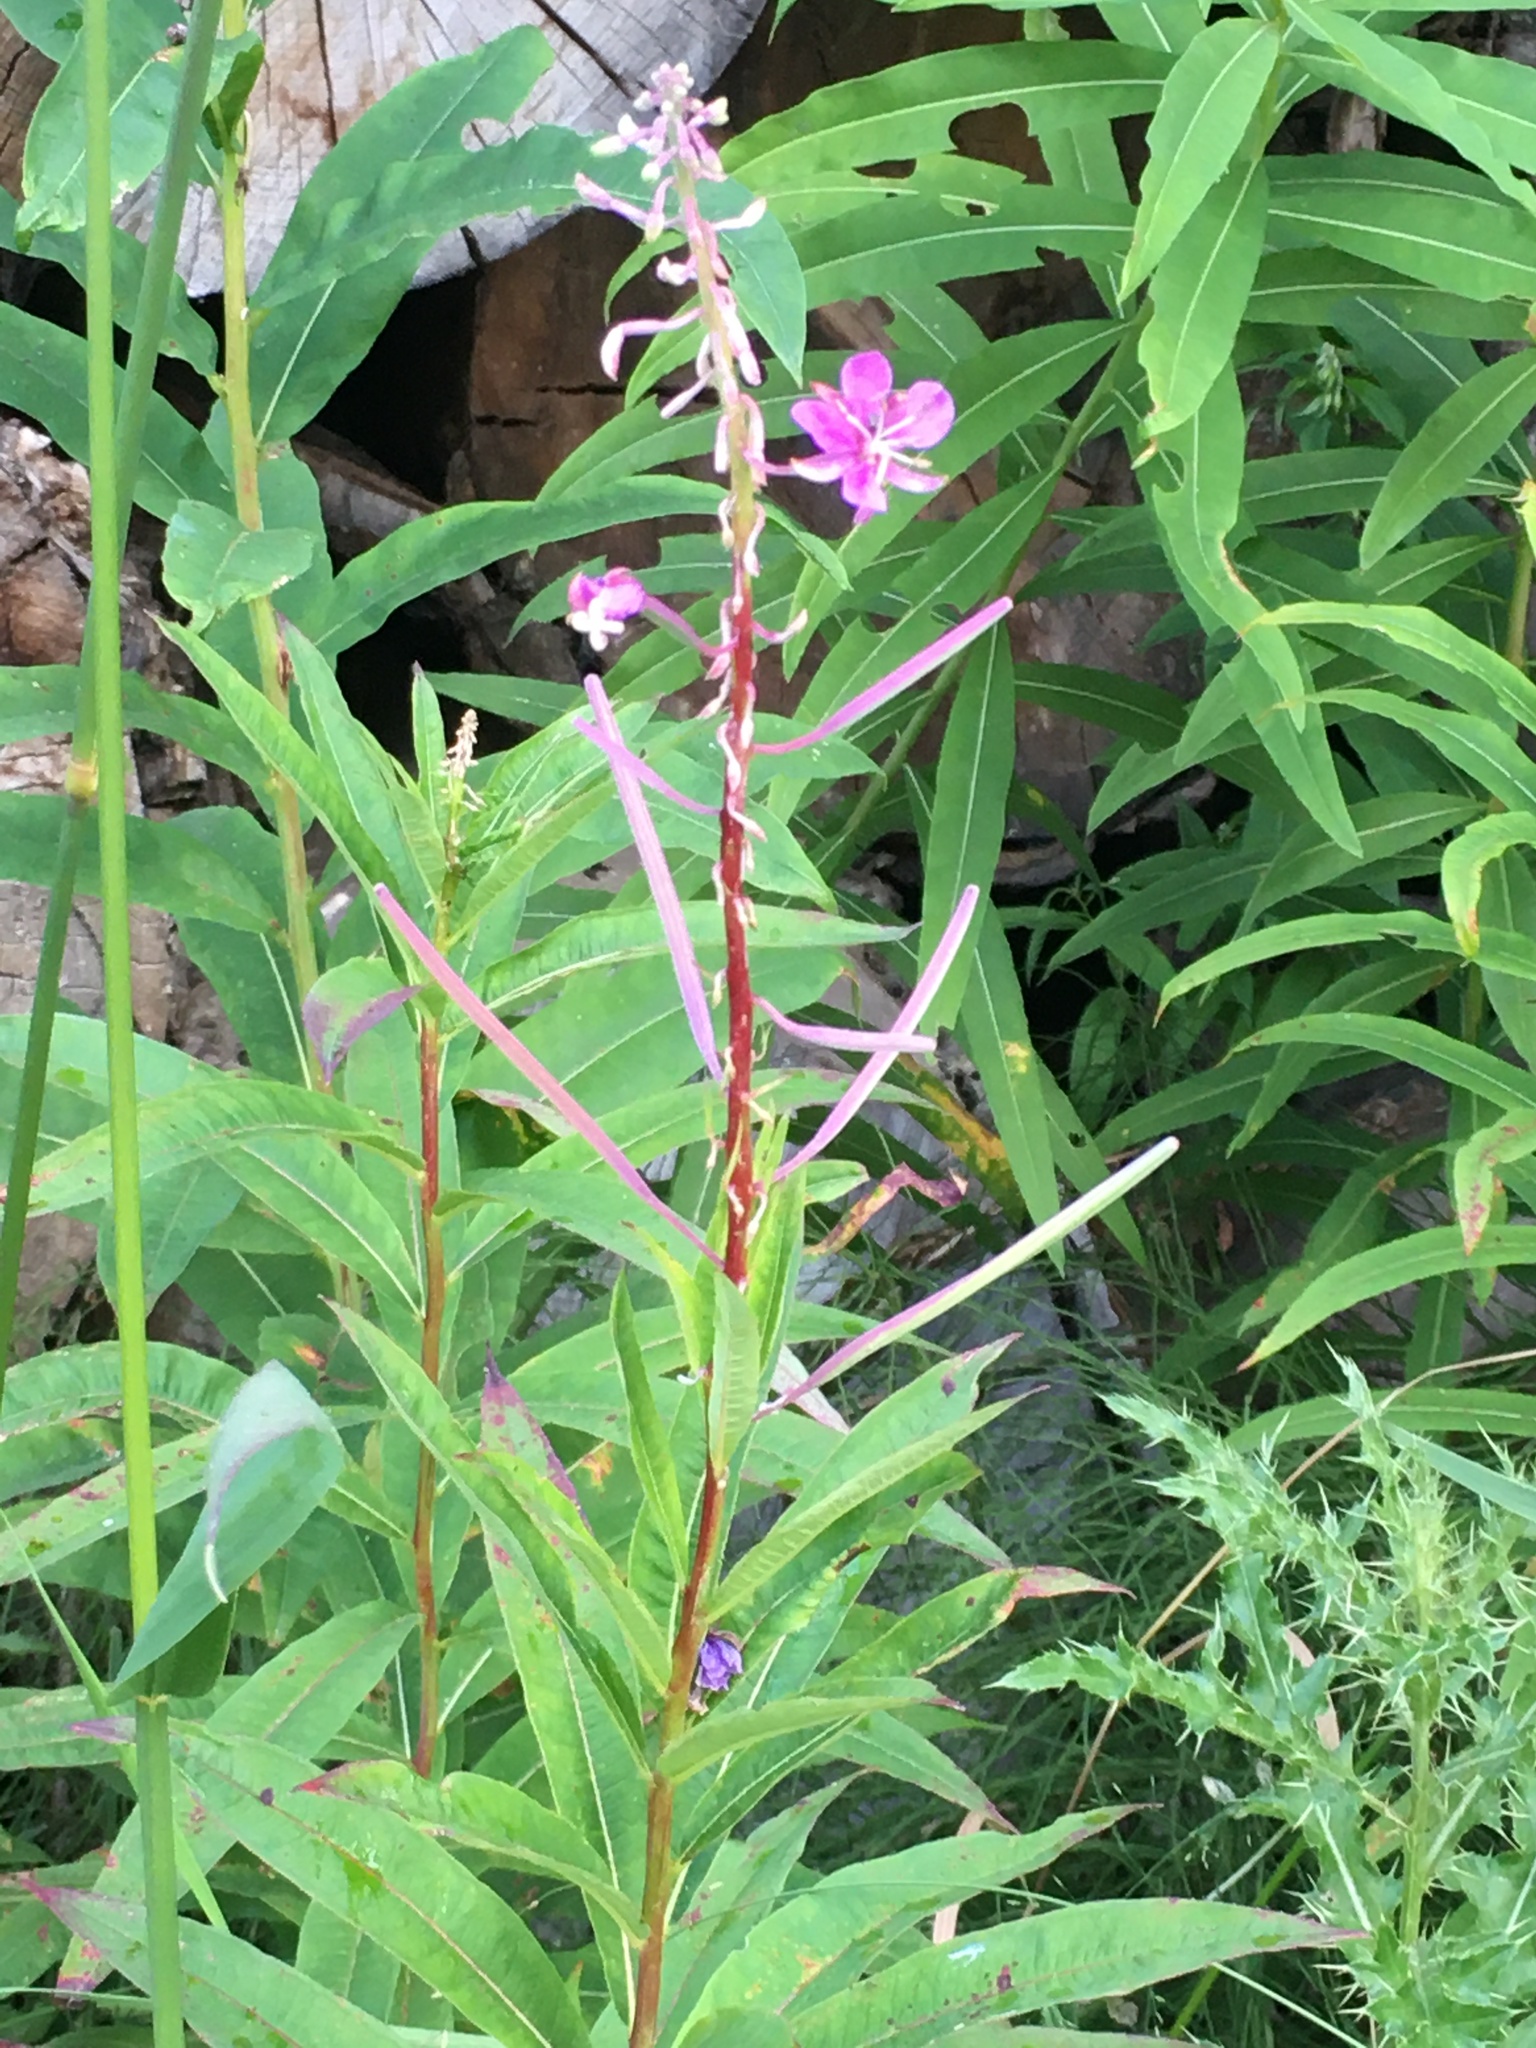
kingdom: Plantae
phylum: Tracheophyta
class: Magnoliopsida
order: Myrtales
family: Onagraceae
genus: Chamaenerion
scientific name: Chamaenerion angustifolium
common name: Fireweed
